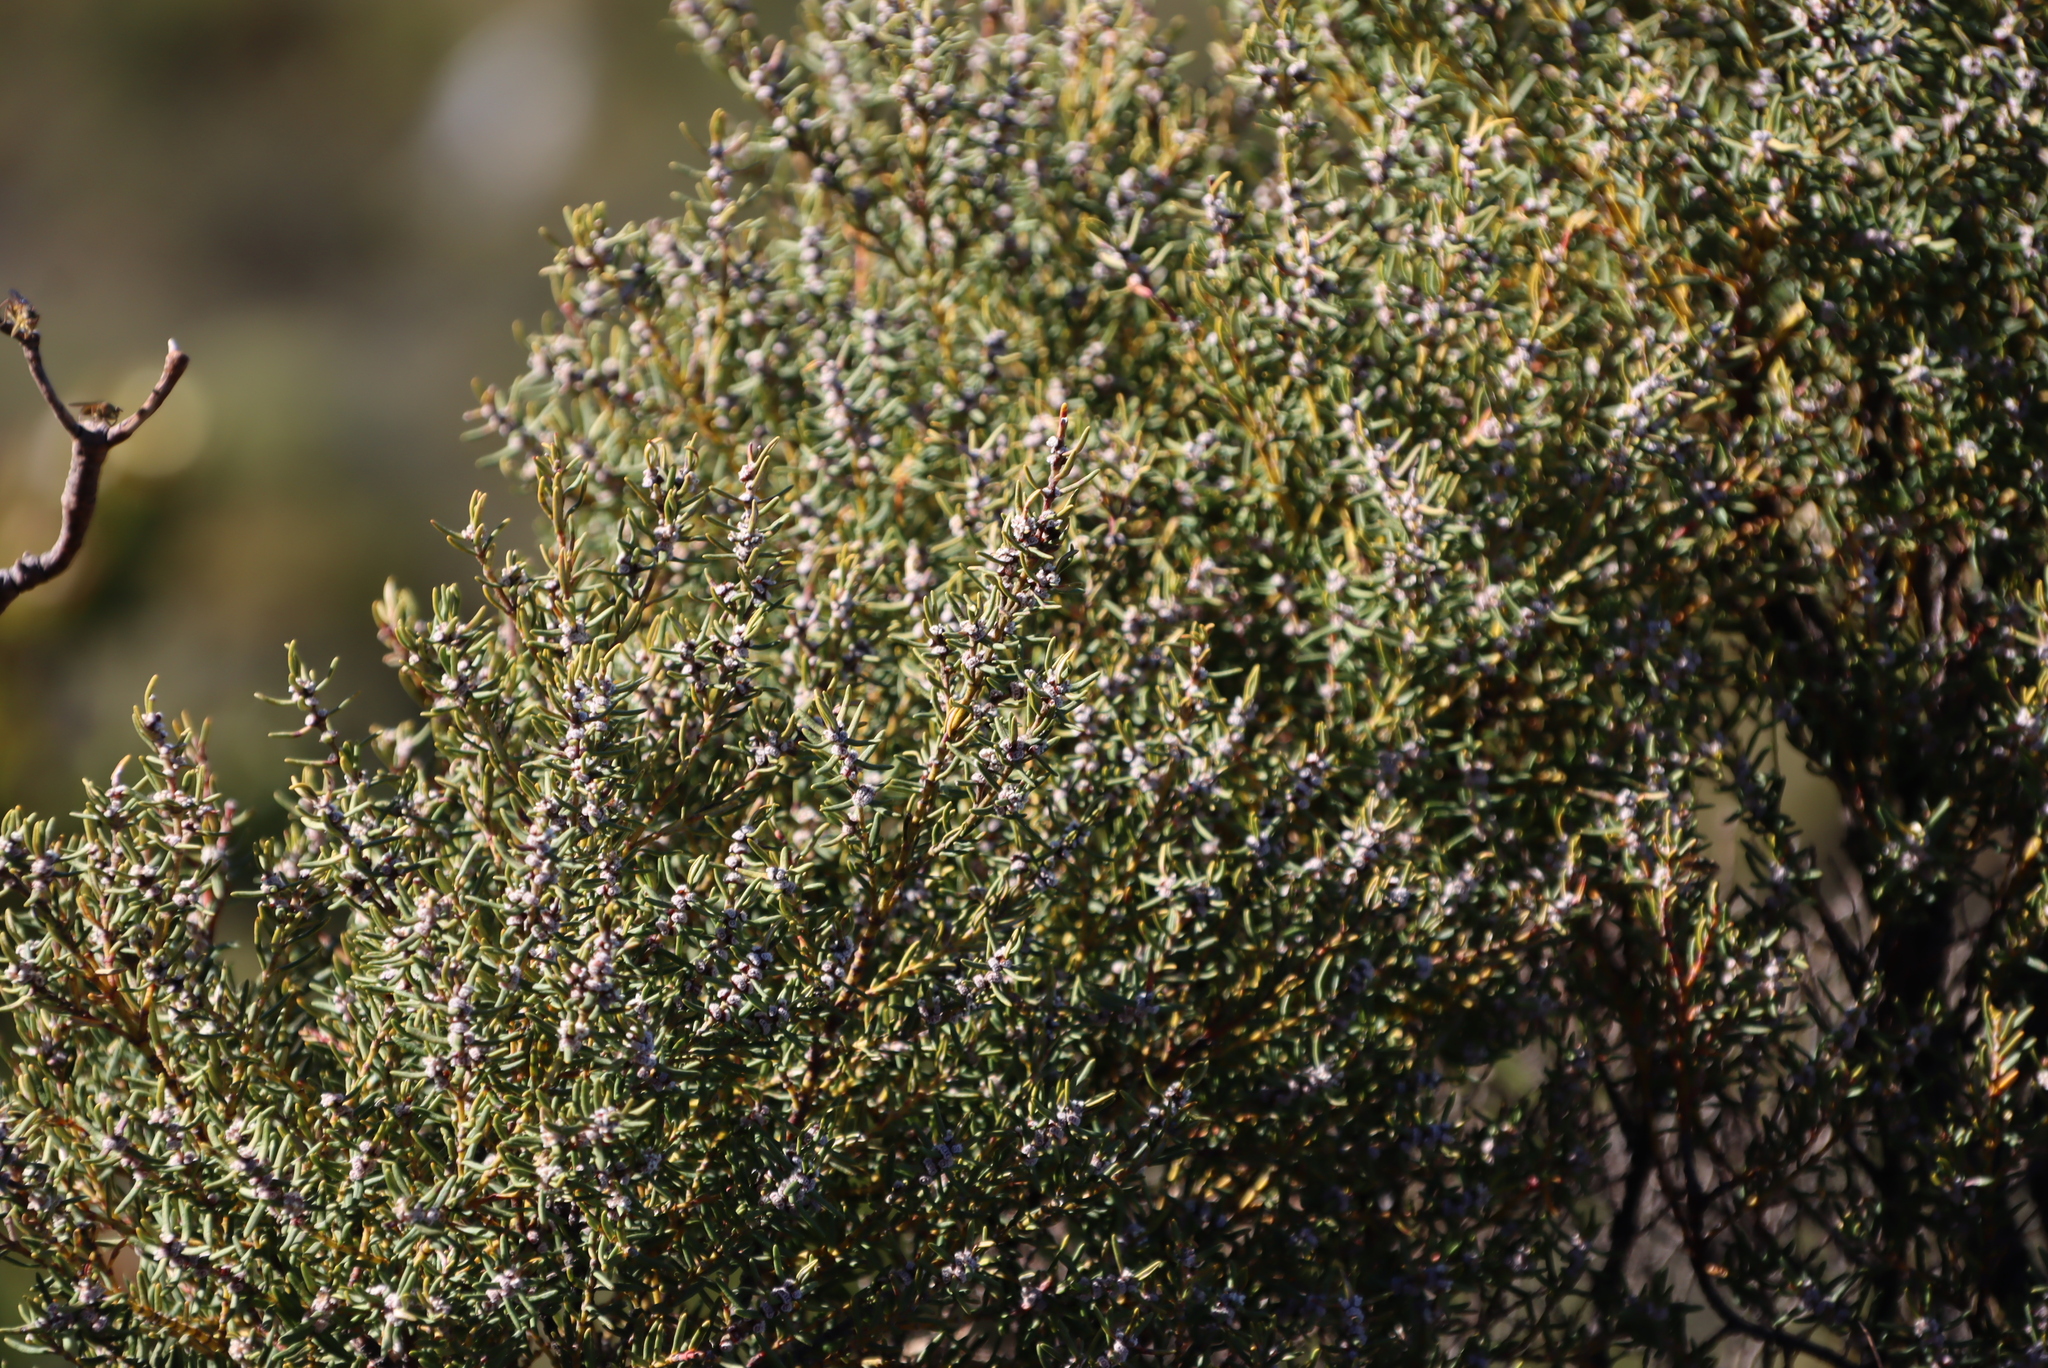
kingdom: Plantae
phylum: Tracheophyta
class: Magnoliopsida
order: Cornales
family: Grubbiaceae
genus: Grubbia
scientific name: Grubbia rosmarinifolia
